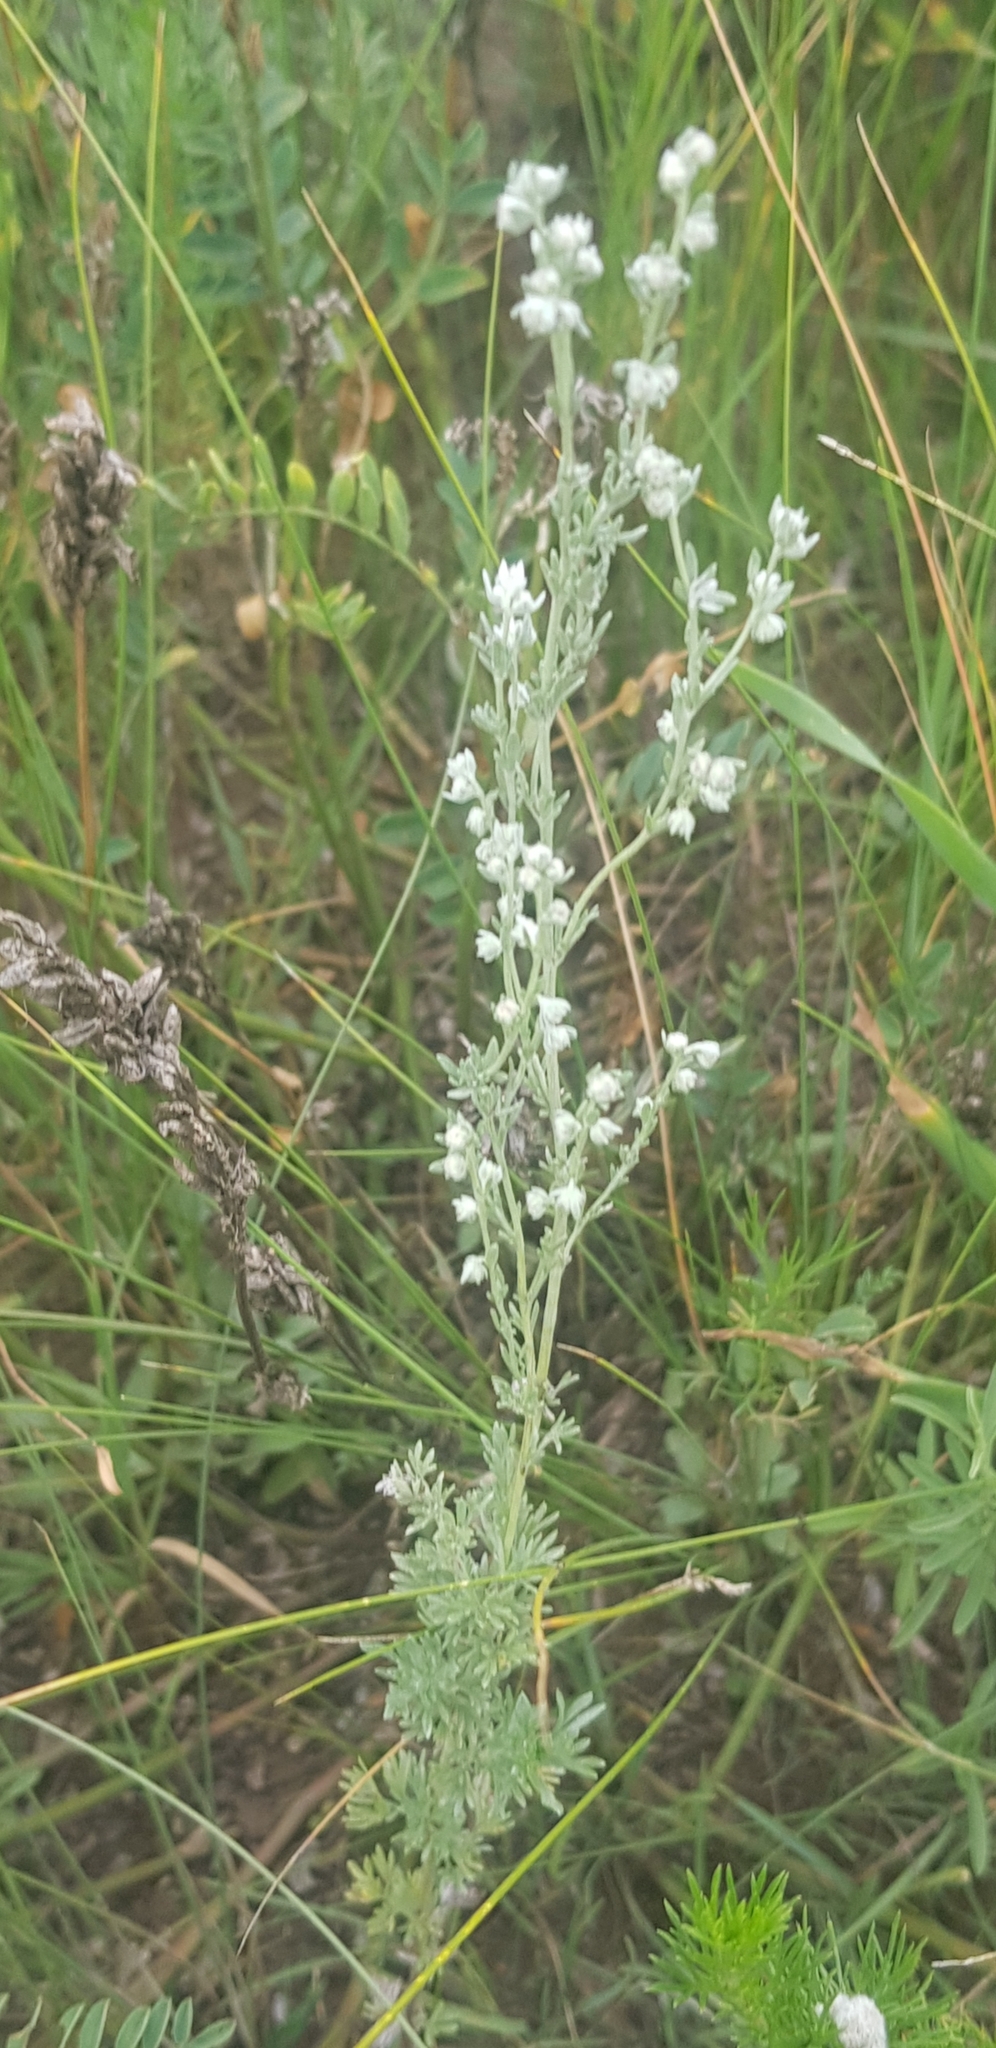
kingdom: Plantae
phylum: Tracheophyta
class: Magnoliopsida
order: Asterales
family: Asteraceae
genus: Artemisia
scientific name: Artemisia frigida
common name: Prairie sagewort
